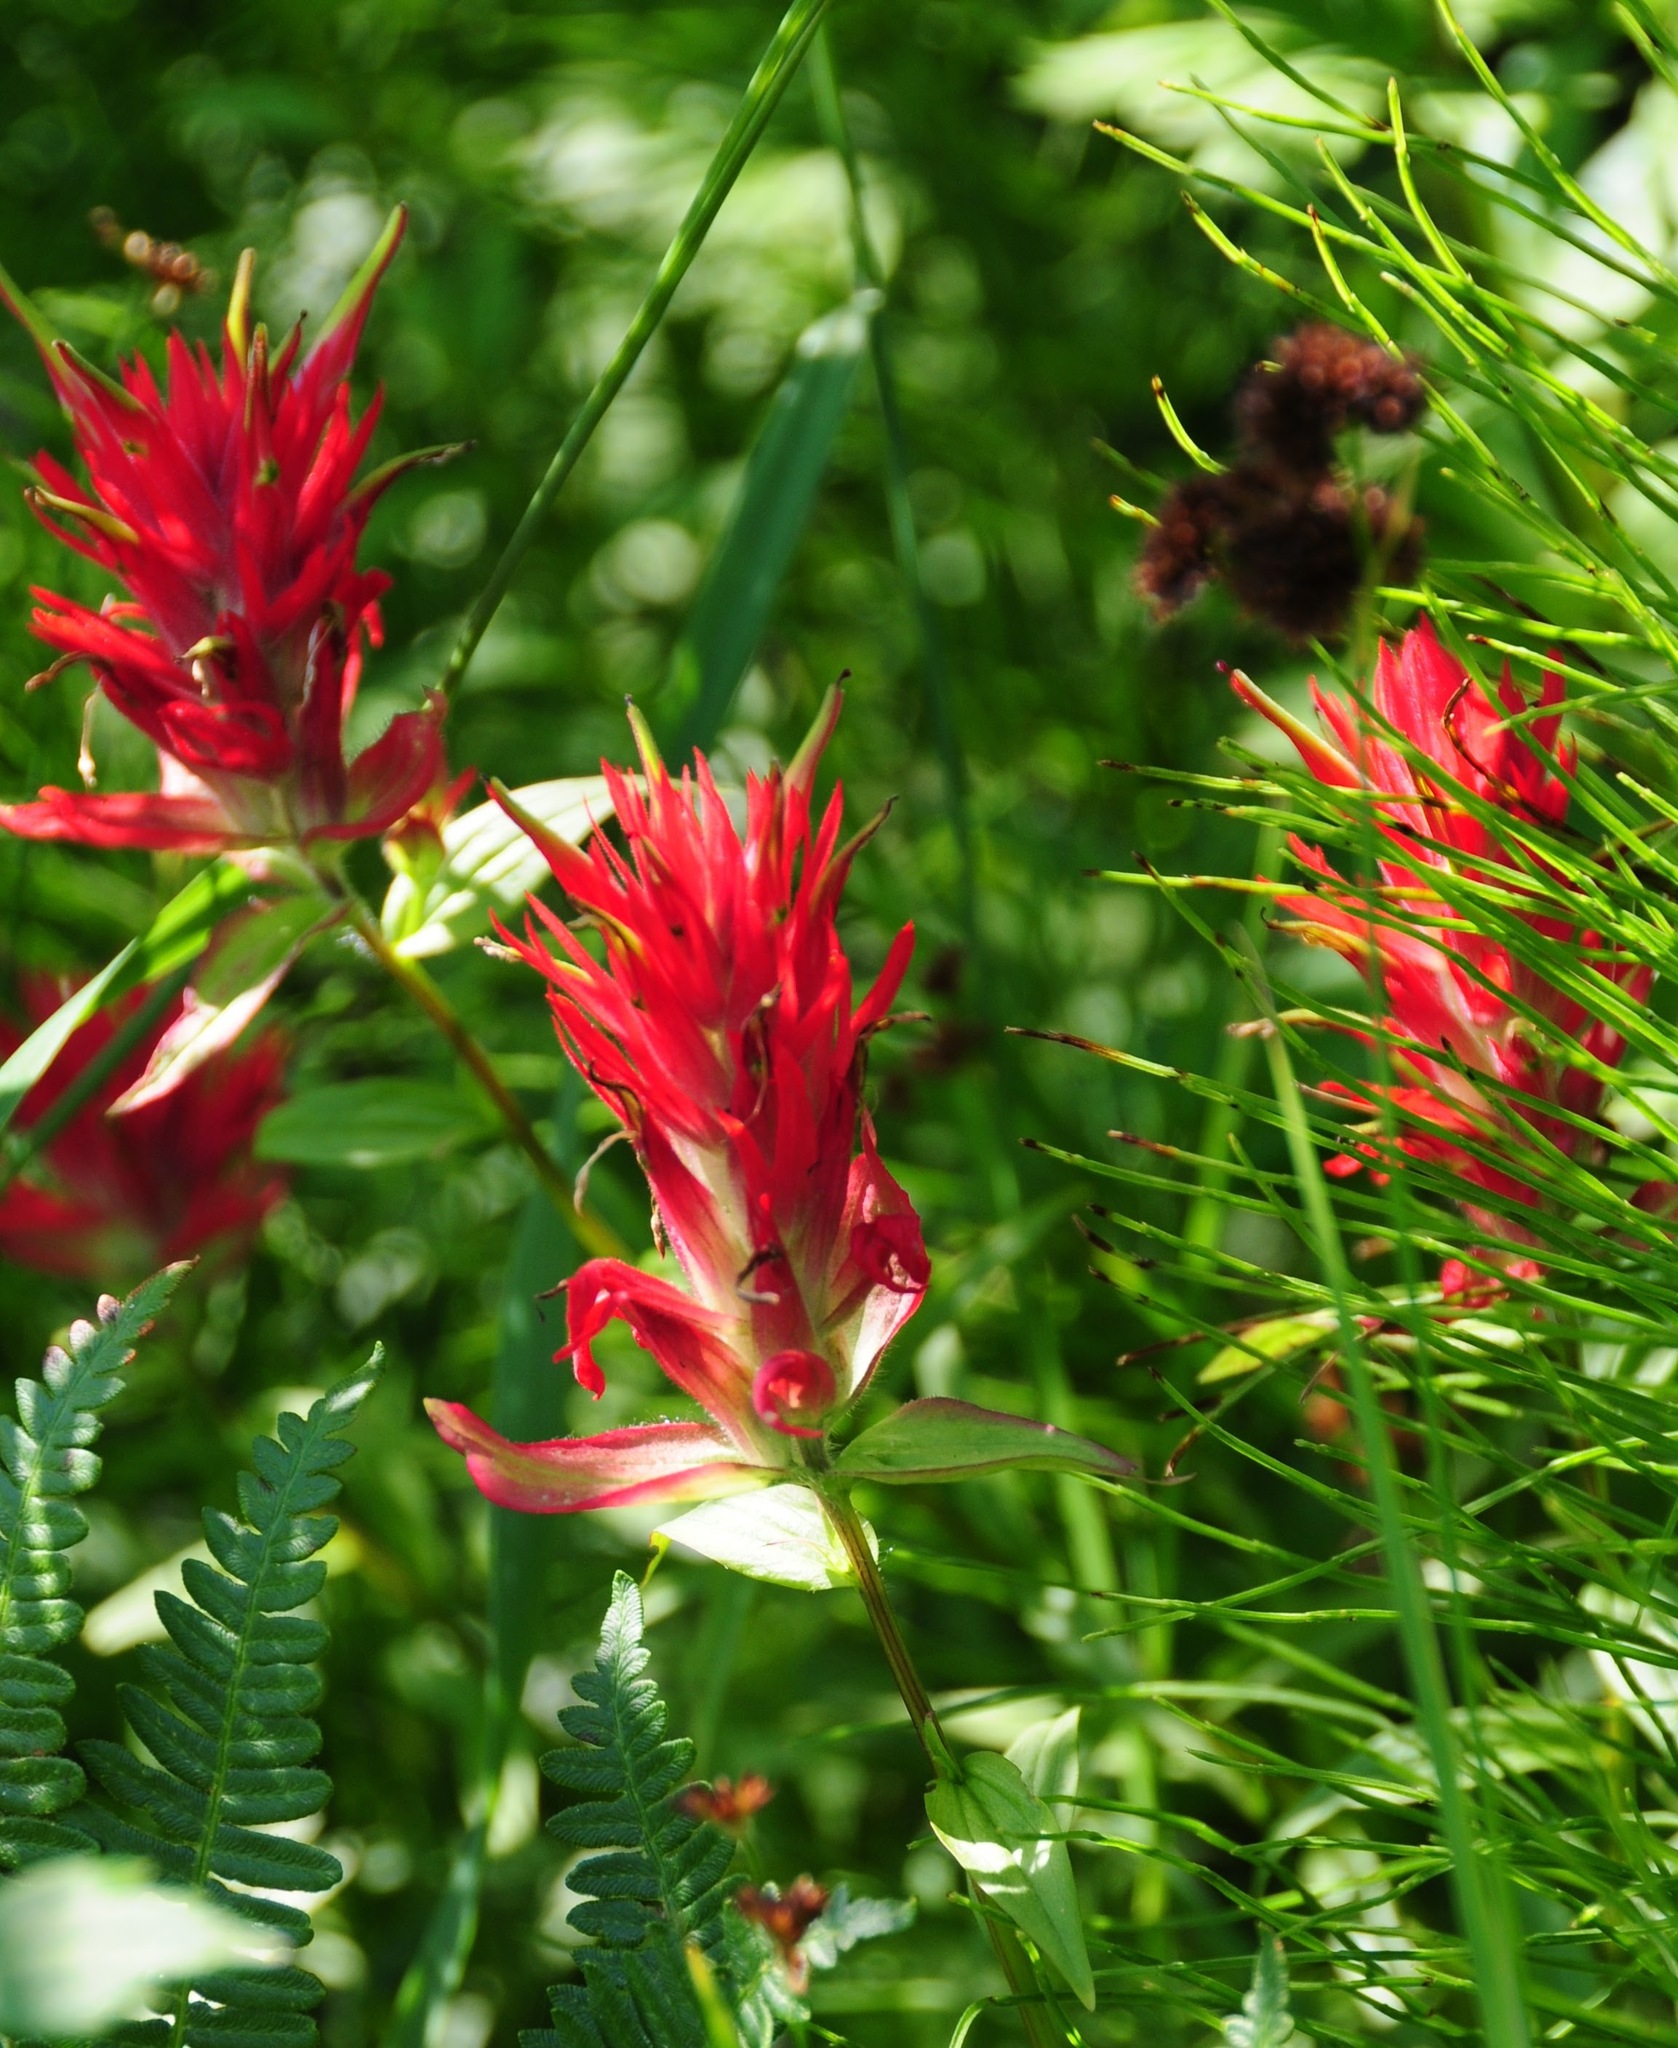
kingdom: Plantae
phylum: Tracheophyta
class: Magnoliopsida
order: Lamiales
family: Orobanchaceae
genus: Castilleja
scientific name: Castilleja miniata
